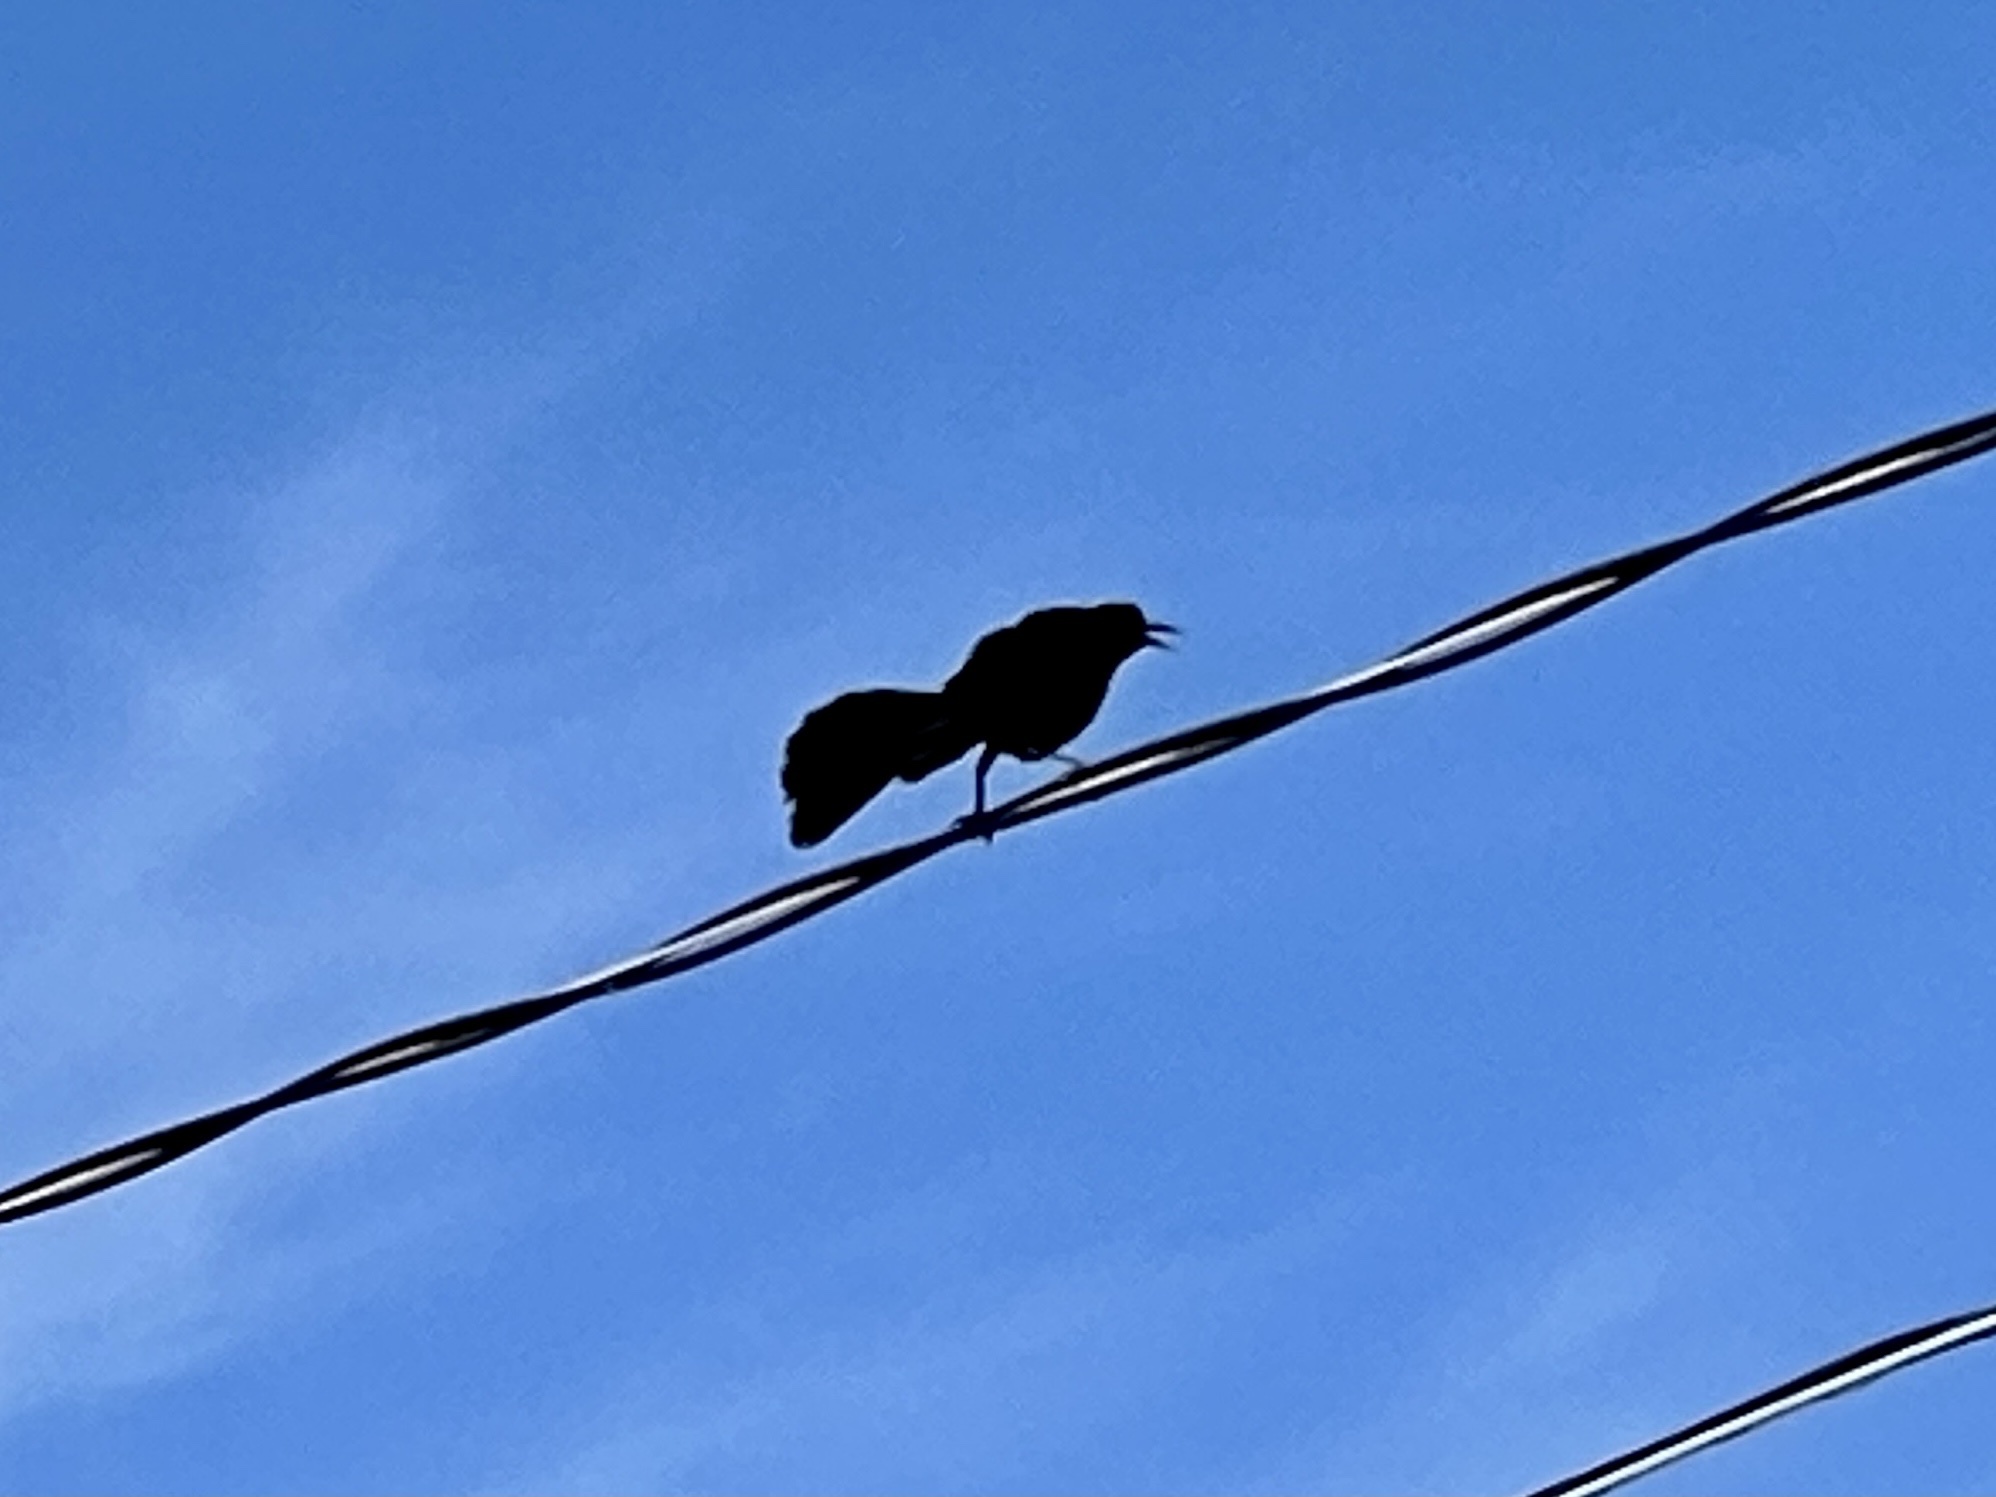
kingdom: Animalia
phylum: Chordata
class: Aves
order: Passeriformes
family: Icteridae
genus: Quiscalus
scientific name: Quiscalus mexicanus
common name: Great-tailed grackle
